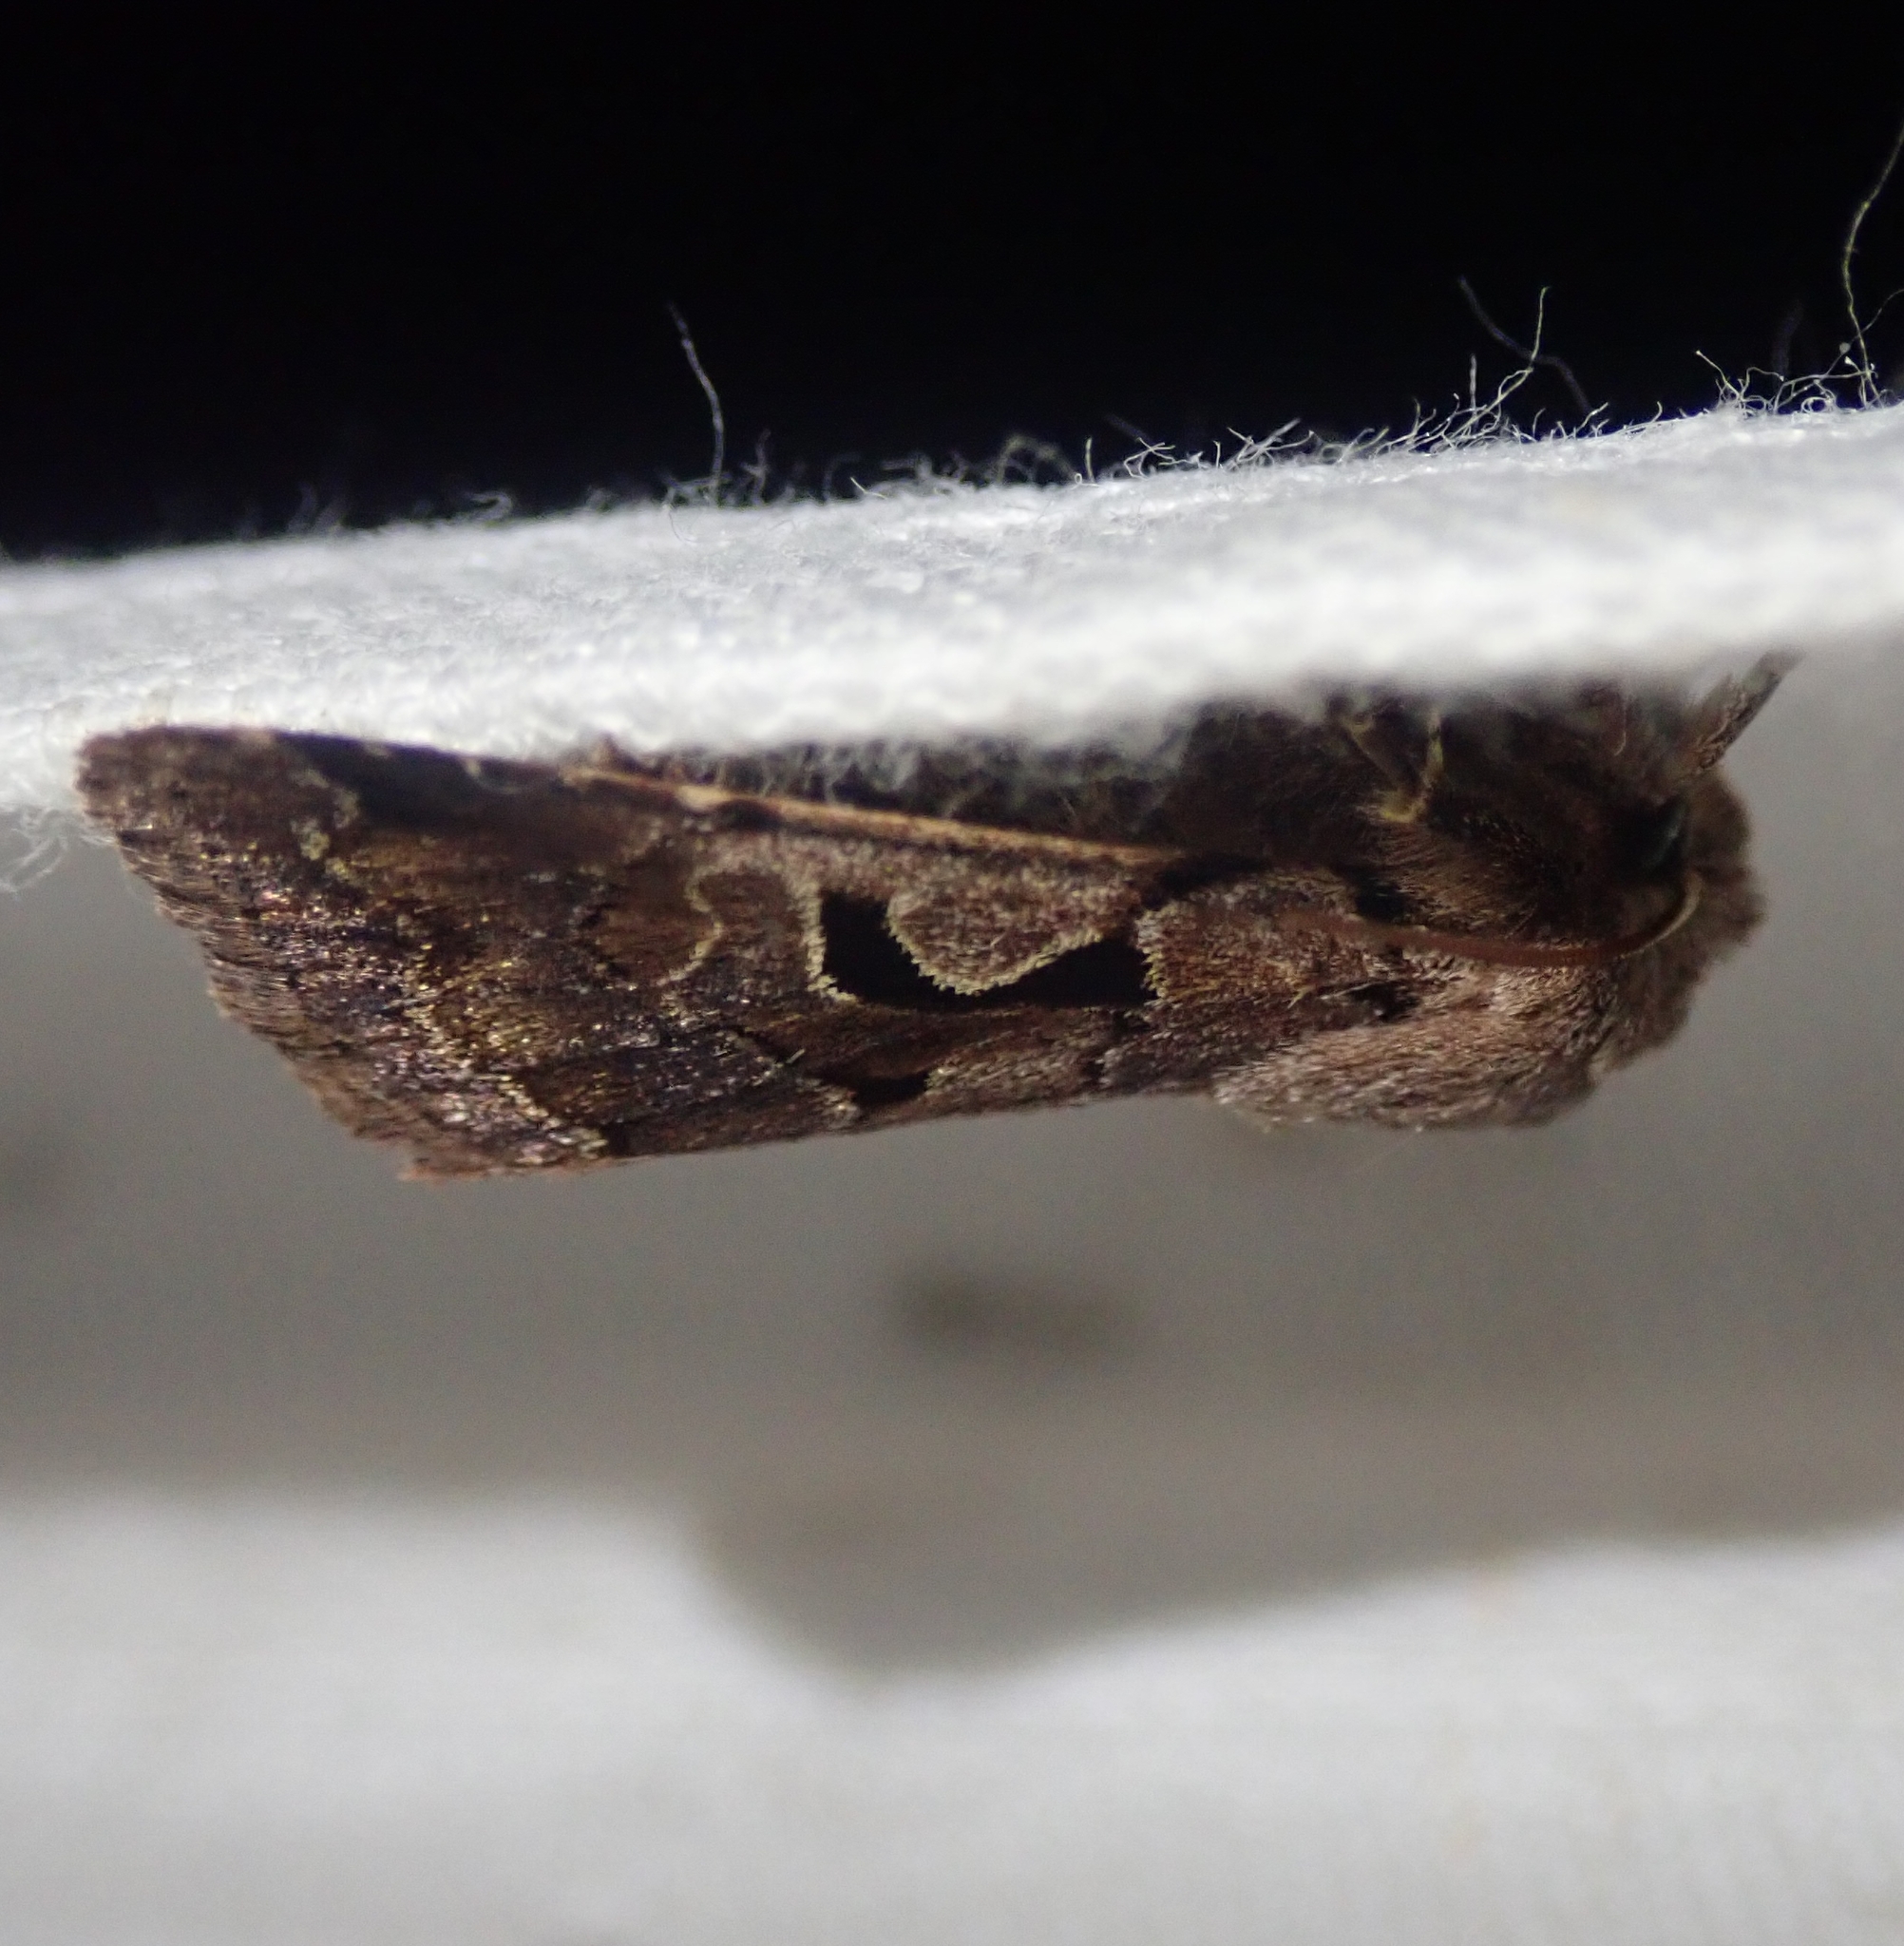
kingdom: Animalia
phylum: Arthropoda
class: Insecta
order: Lepidoptera
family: Noctuidae
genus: Orthosia
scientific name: Orthosia gothica
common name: Hebrew character
